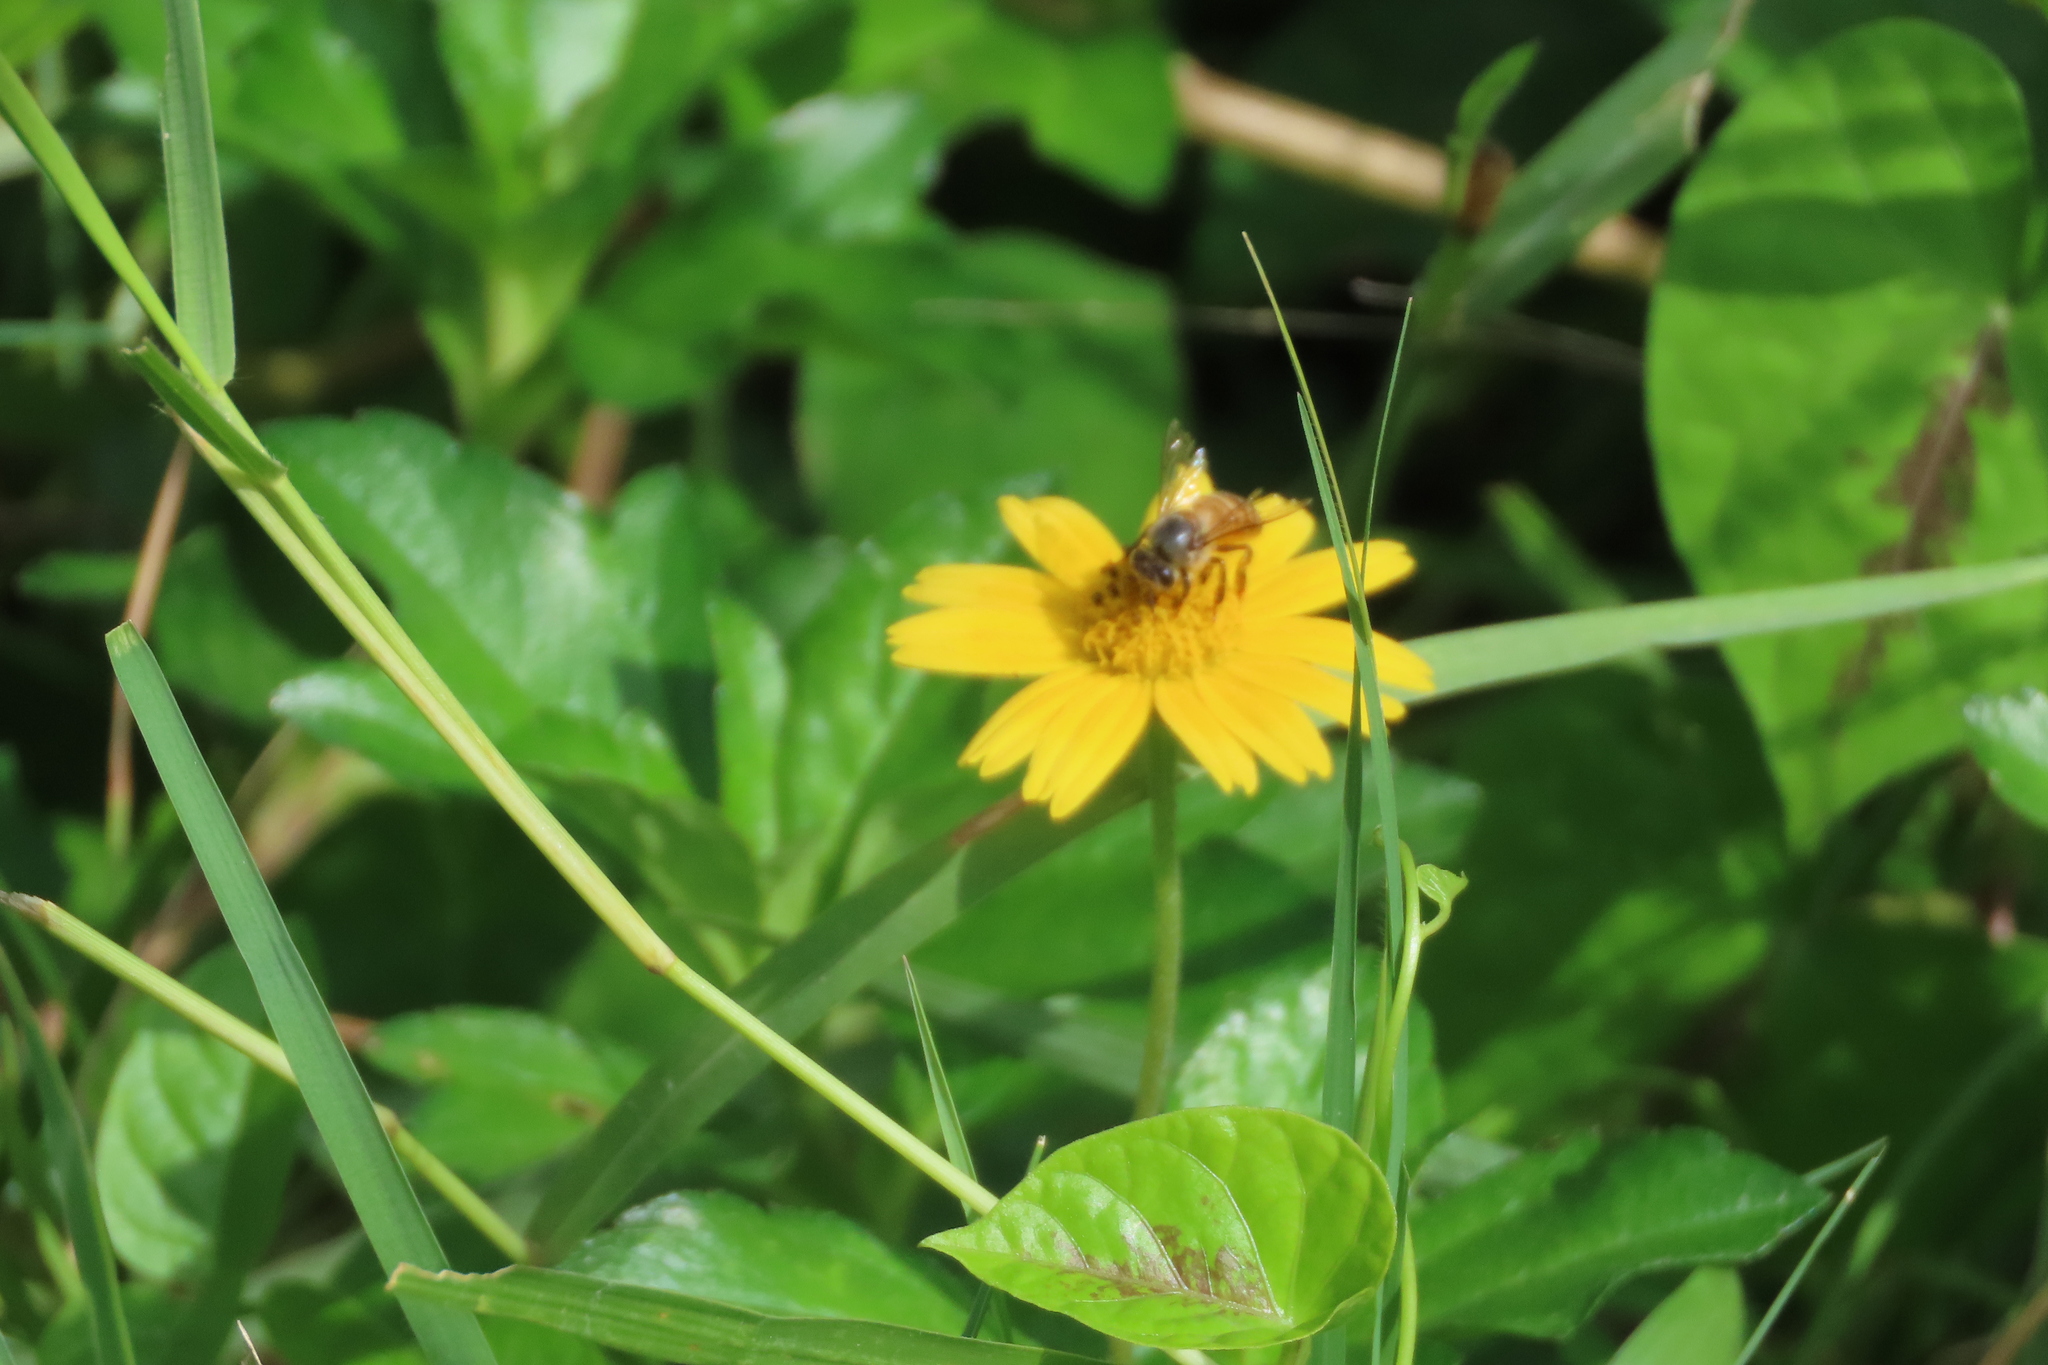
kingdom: Animalia
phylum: Arthropoda
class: Insecta
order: Hymenoptera
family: Apidae
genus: Apis
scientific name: Apis cerana
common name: Honey bee
